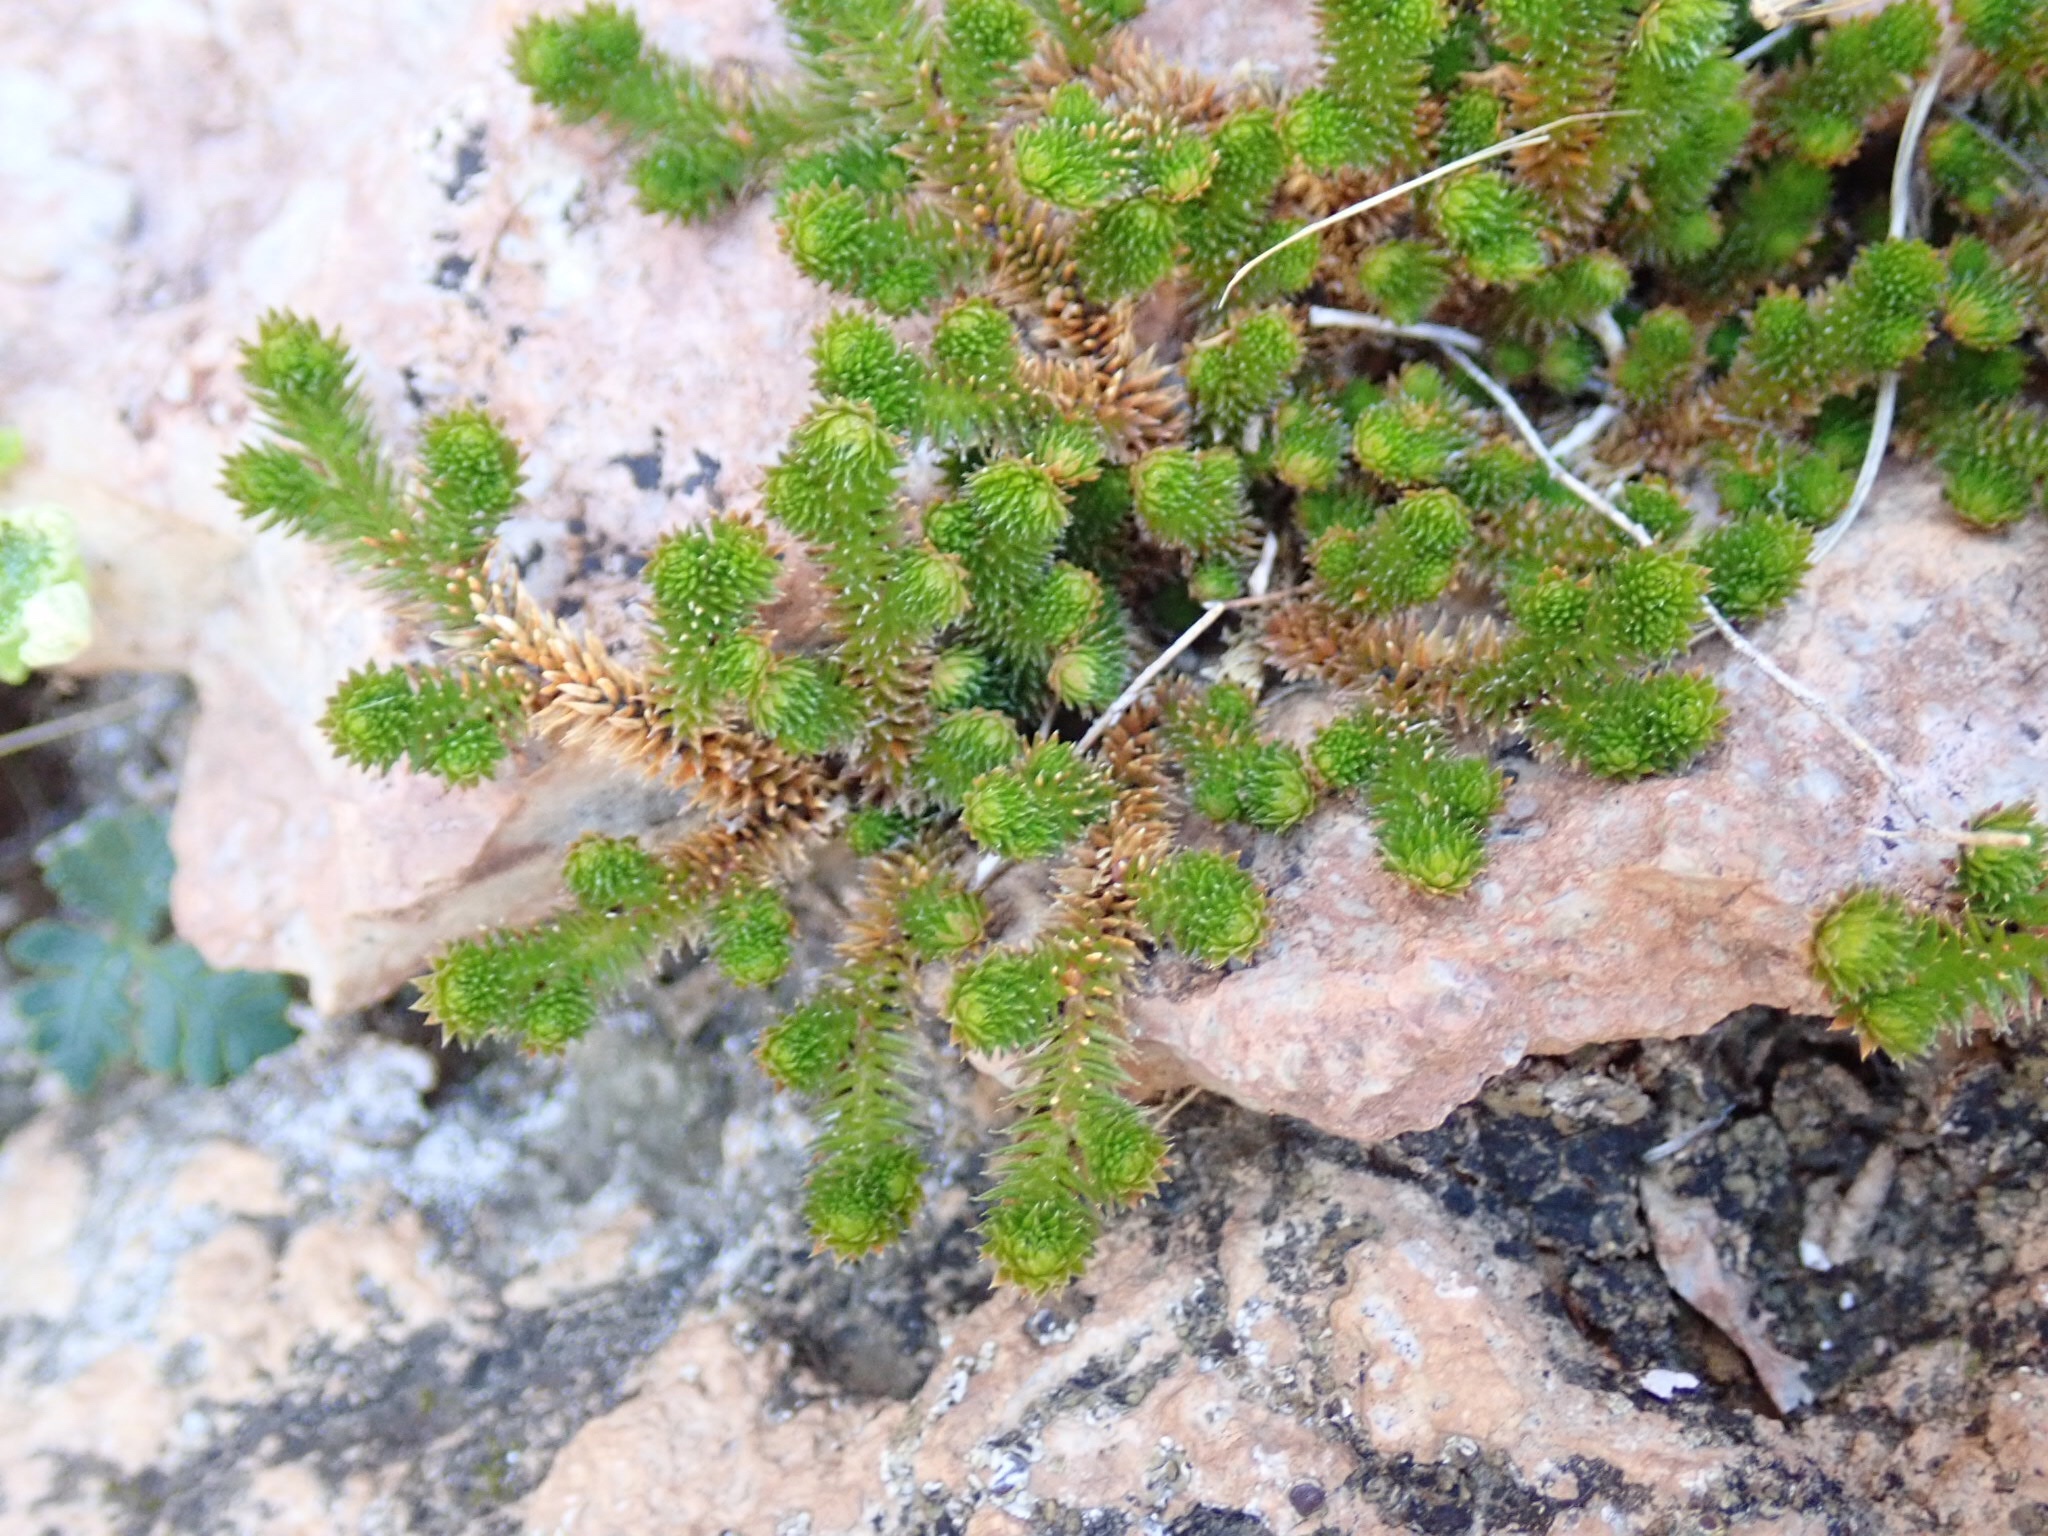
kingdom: Plantae
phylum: Tracheophyta
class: Lycopodiopsida
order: Selaginellales
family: Selaginellaceae
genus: Selaginella
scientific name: Selaginella arizonica
